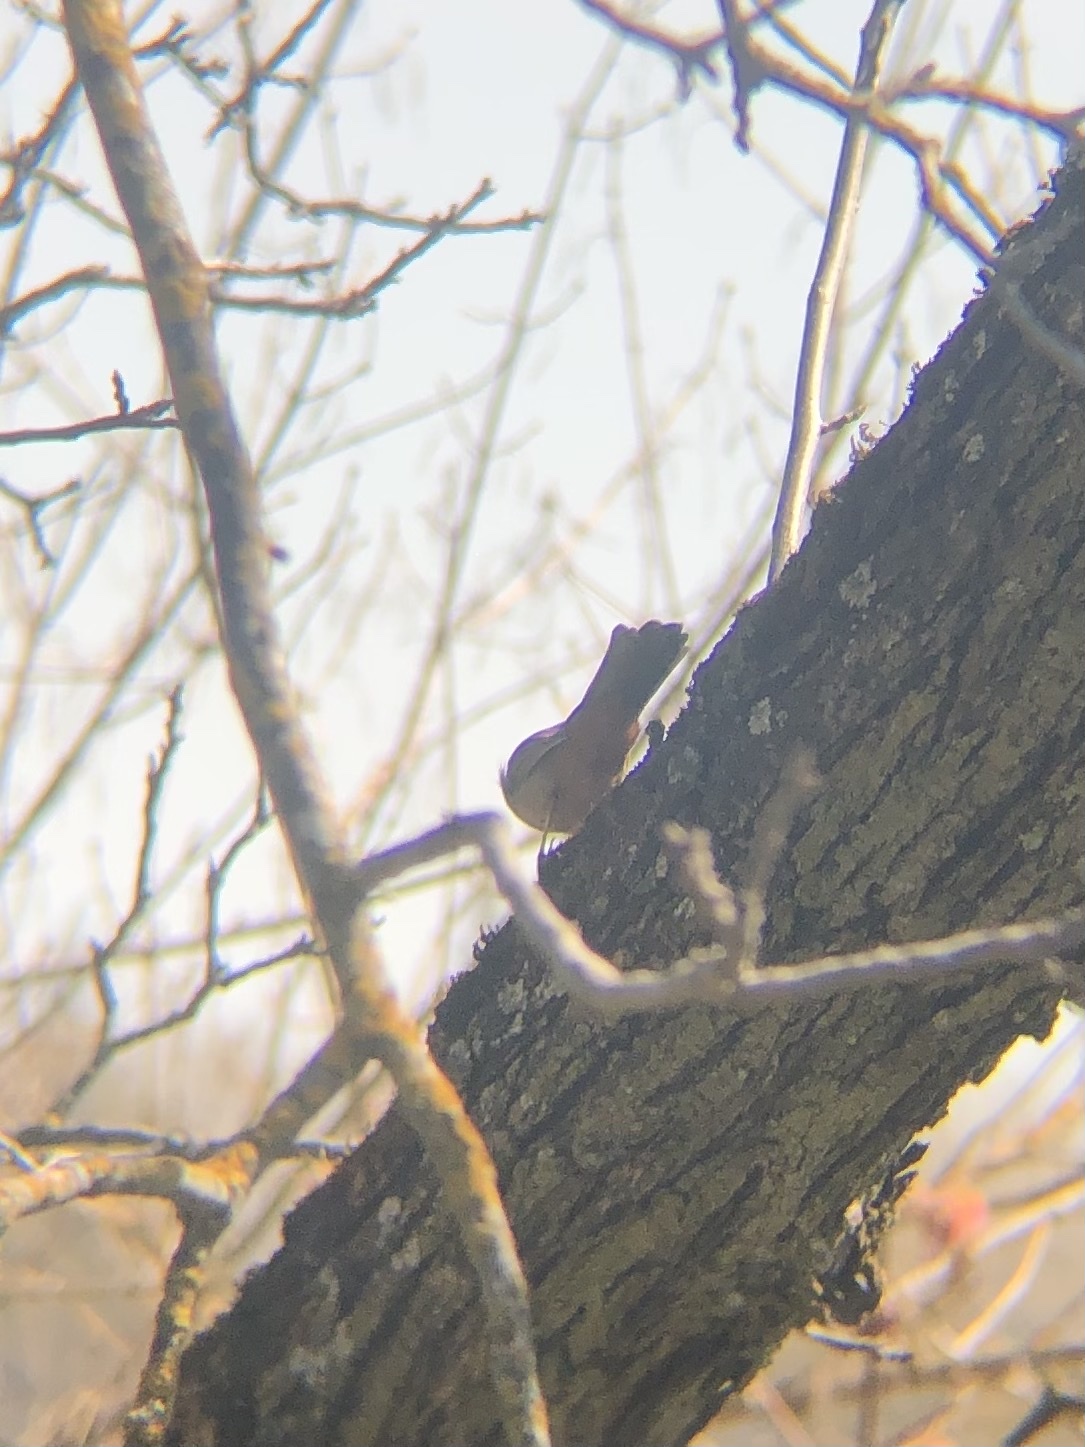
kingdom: Animalia
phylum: Chordata
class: Aves
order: Passeriformes
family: Passerellidae
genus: Melozone
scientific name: Melozone crissalis
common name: California towhee
